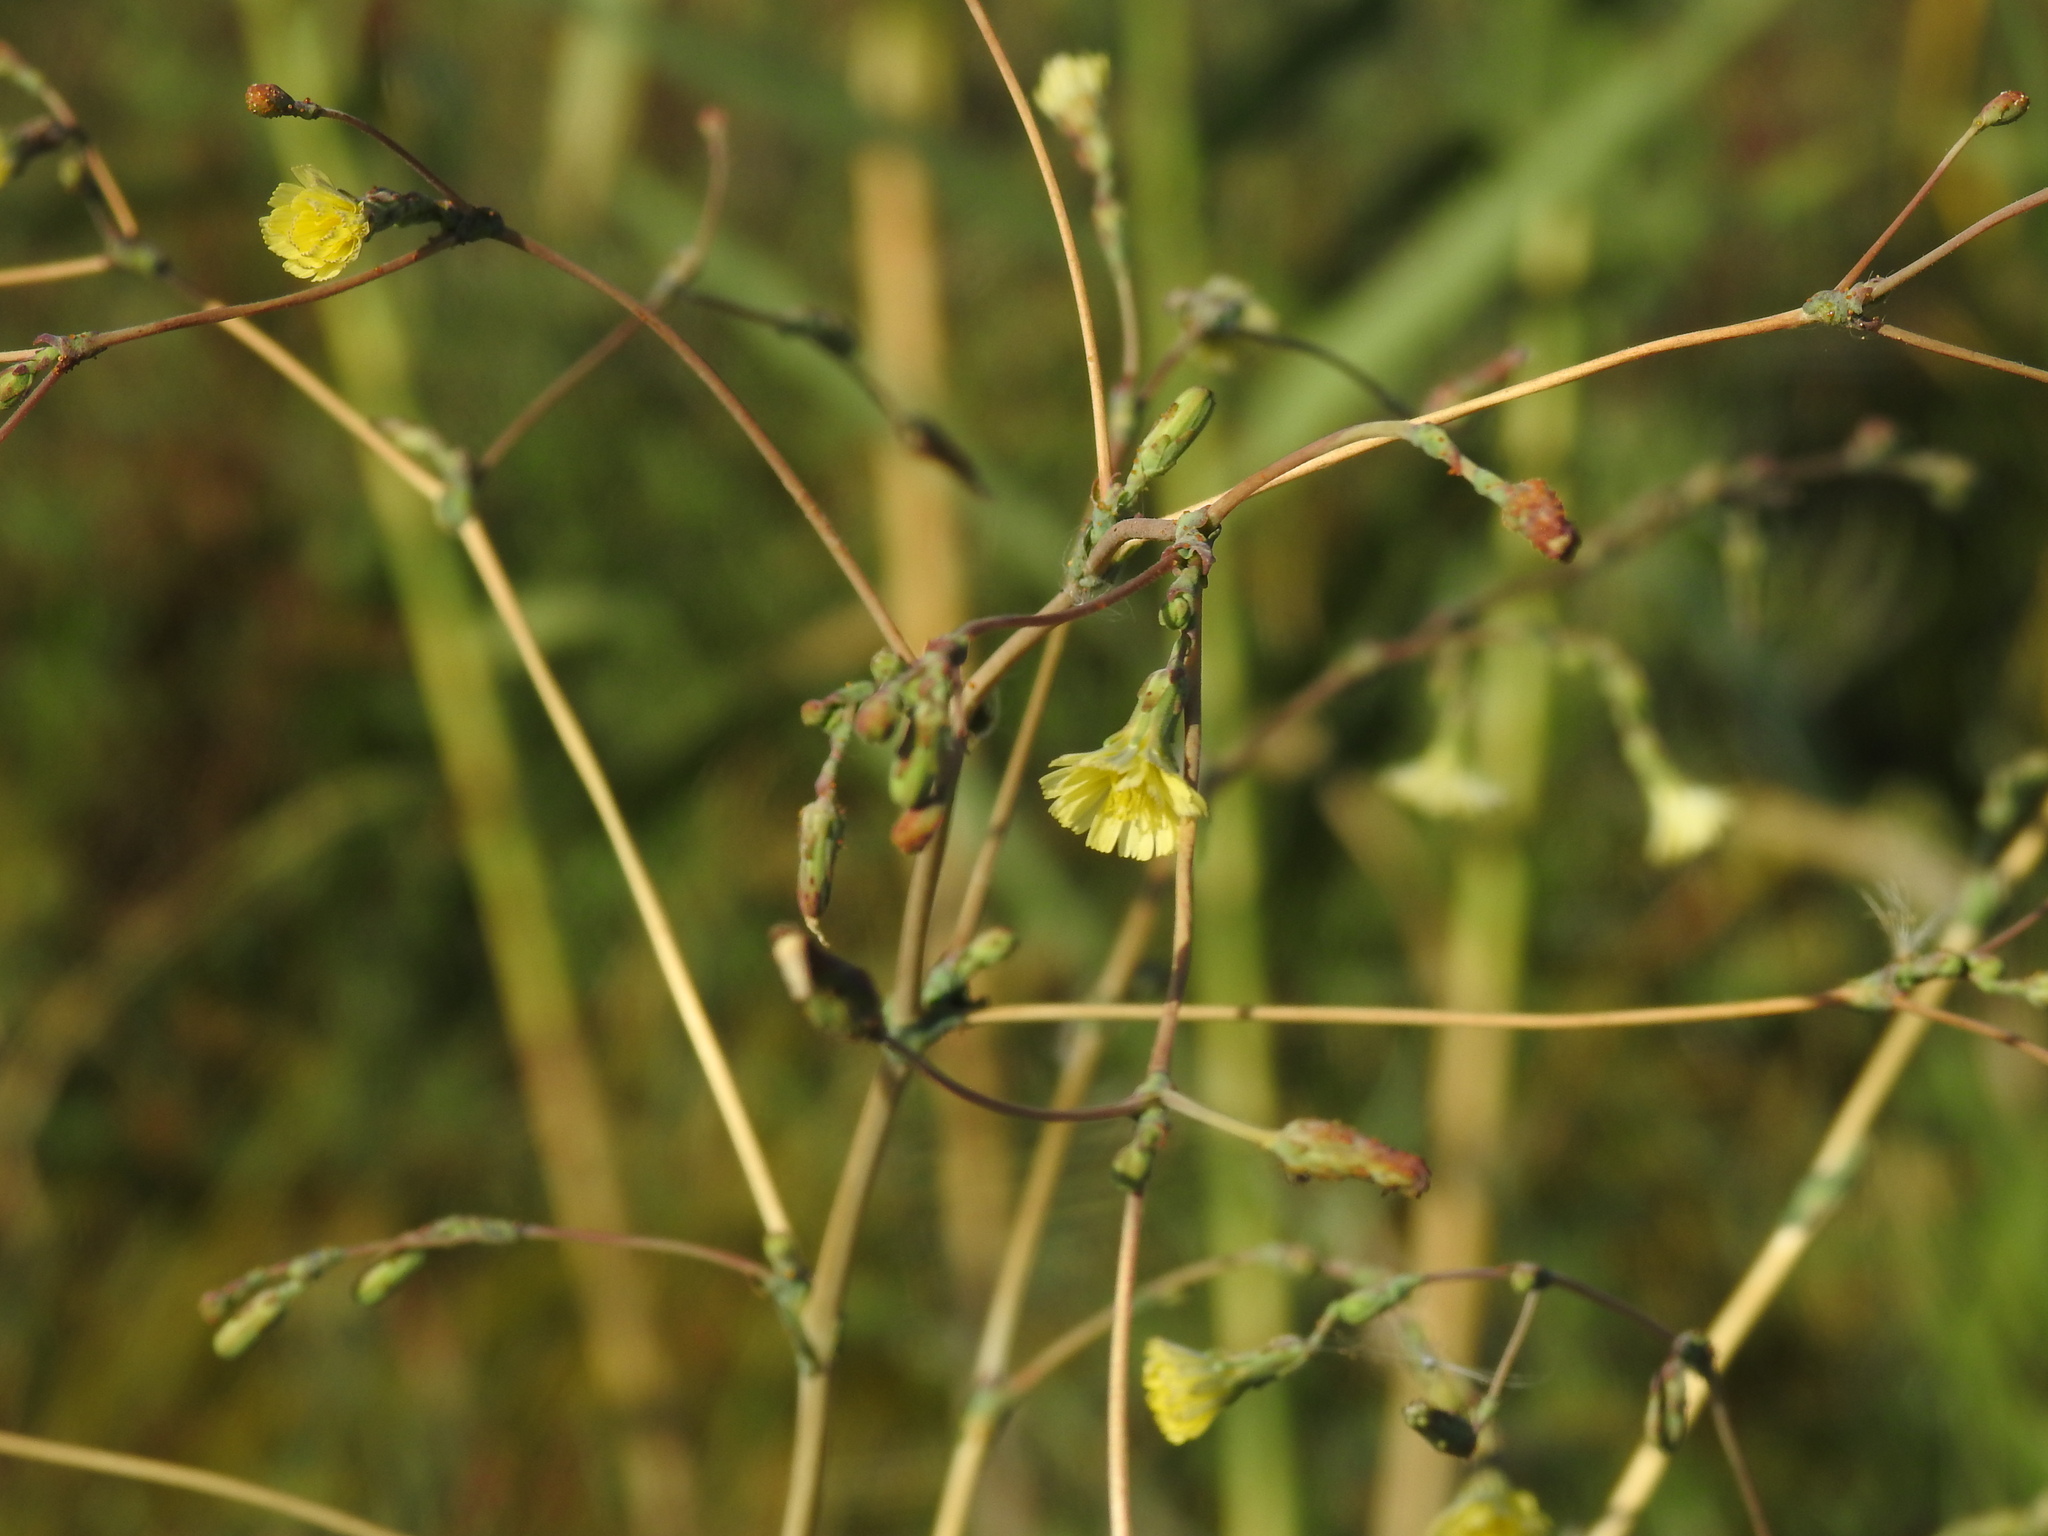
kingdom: Plantae
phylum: Tracheophyta
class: Magnoliopsida
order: Asterales
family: Asteraceae
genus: Lactuca
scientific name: Lactuca serriola
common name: Prickly lettuce
